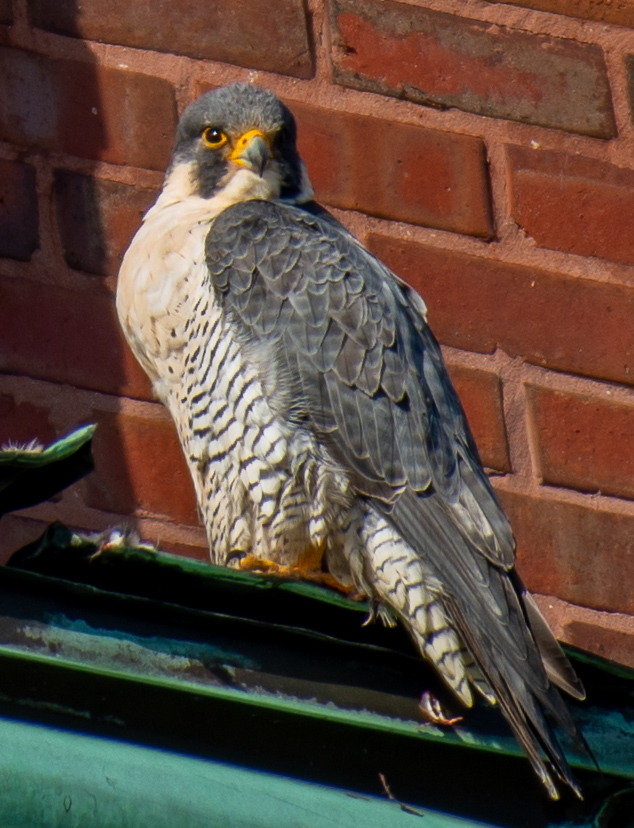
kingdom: Animalia
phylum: Chordata
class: Aves
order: Falconiformes
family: Falconidae
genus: Falco
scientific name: Falco peregrinus
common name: Peregrine falcon
